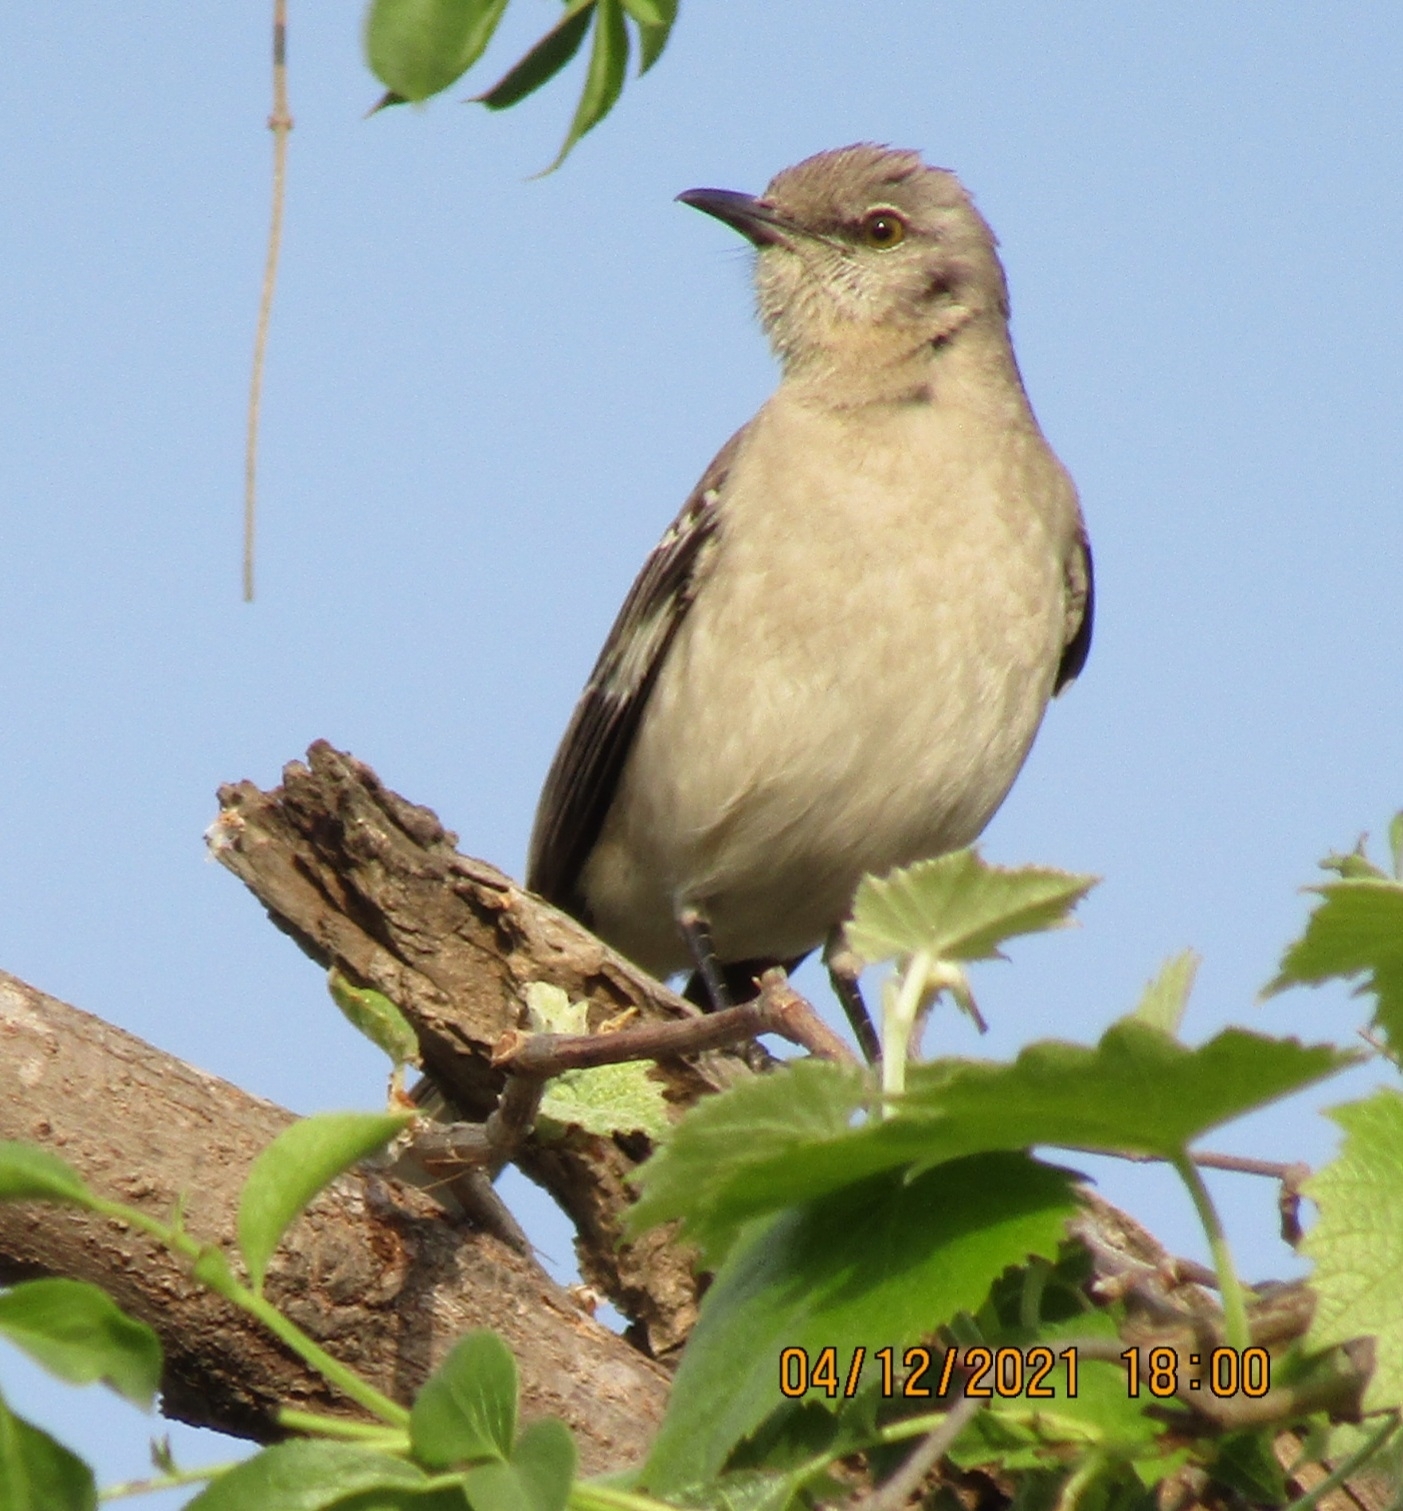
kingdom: Animalia
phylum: Chordata
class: Aves
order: Passeriformes
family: Mimidae
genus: Mimus
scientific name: Mimus polyglottos
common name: Northern mockingbird
